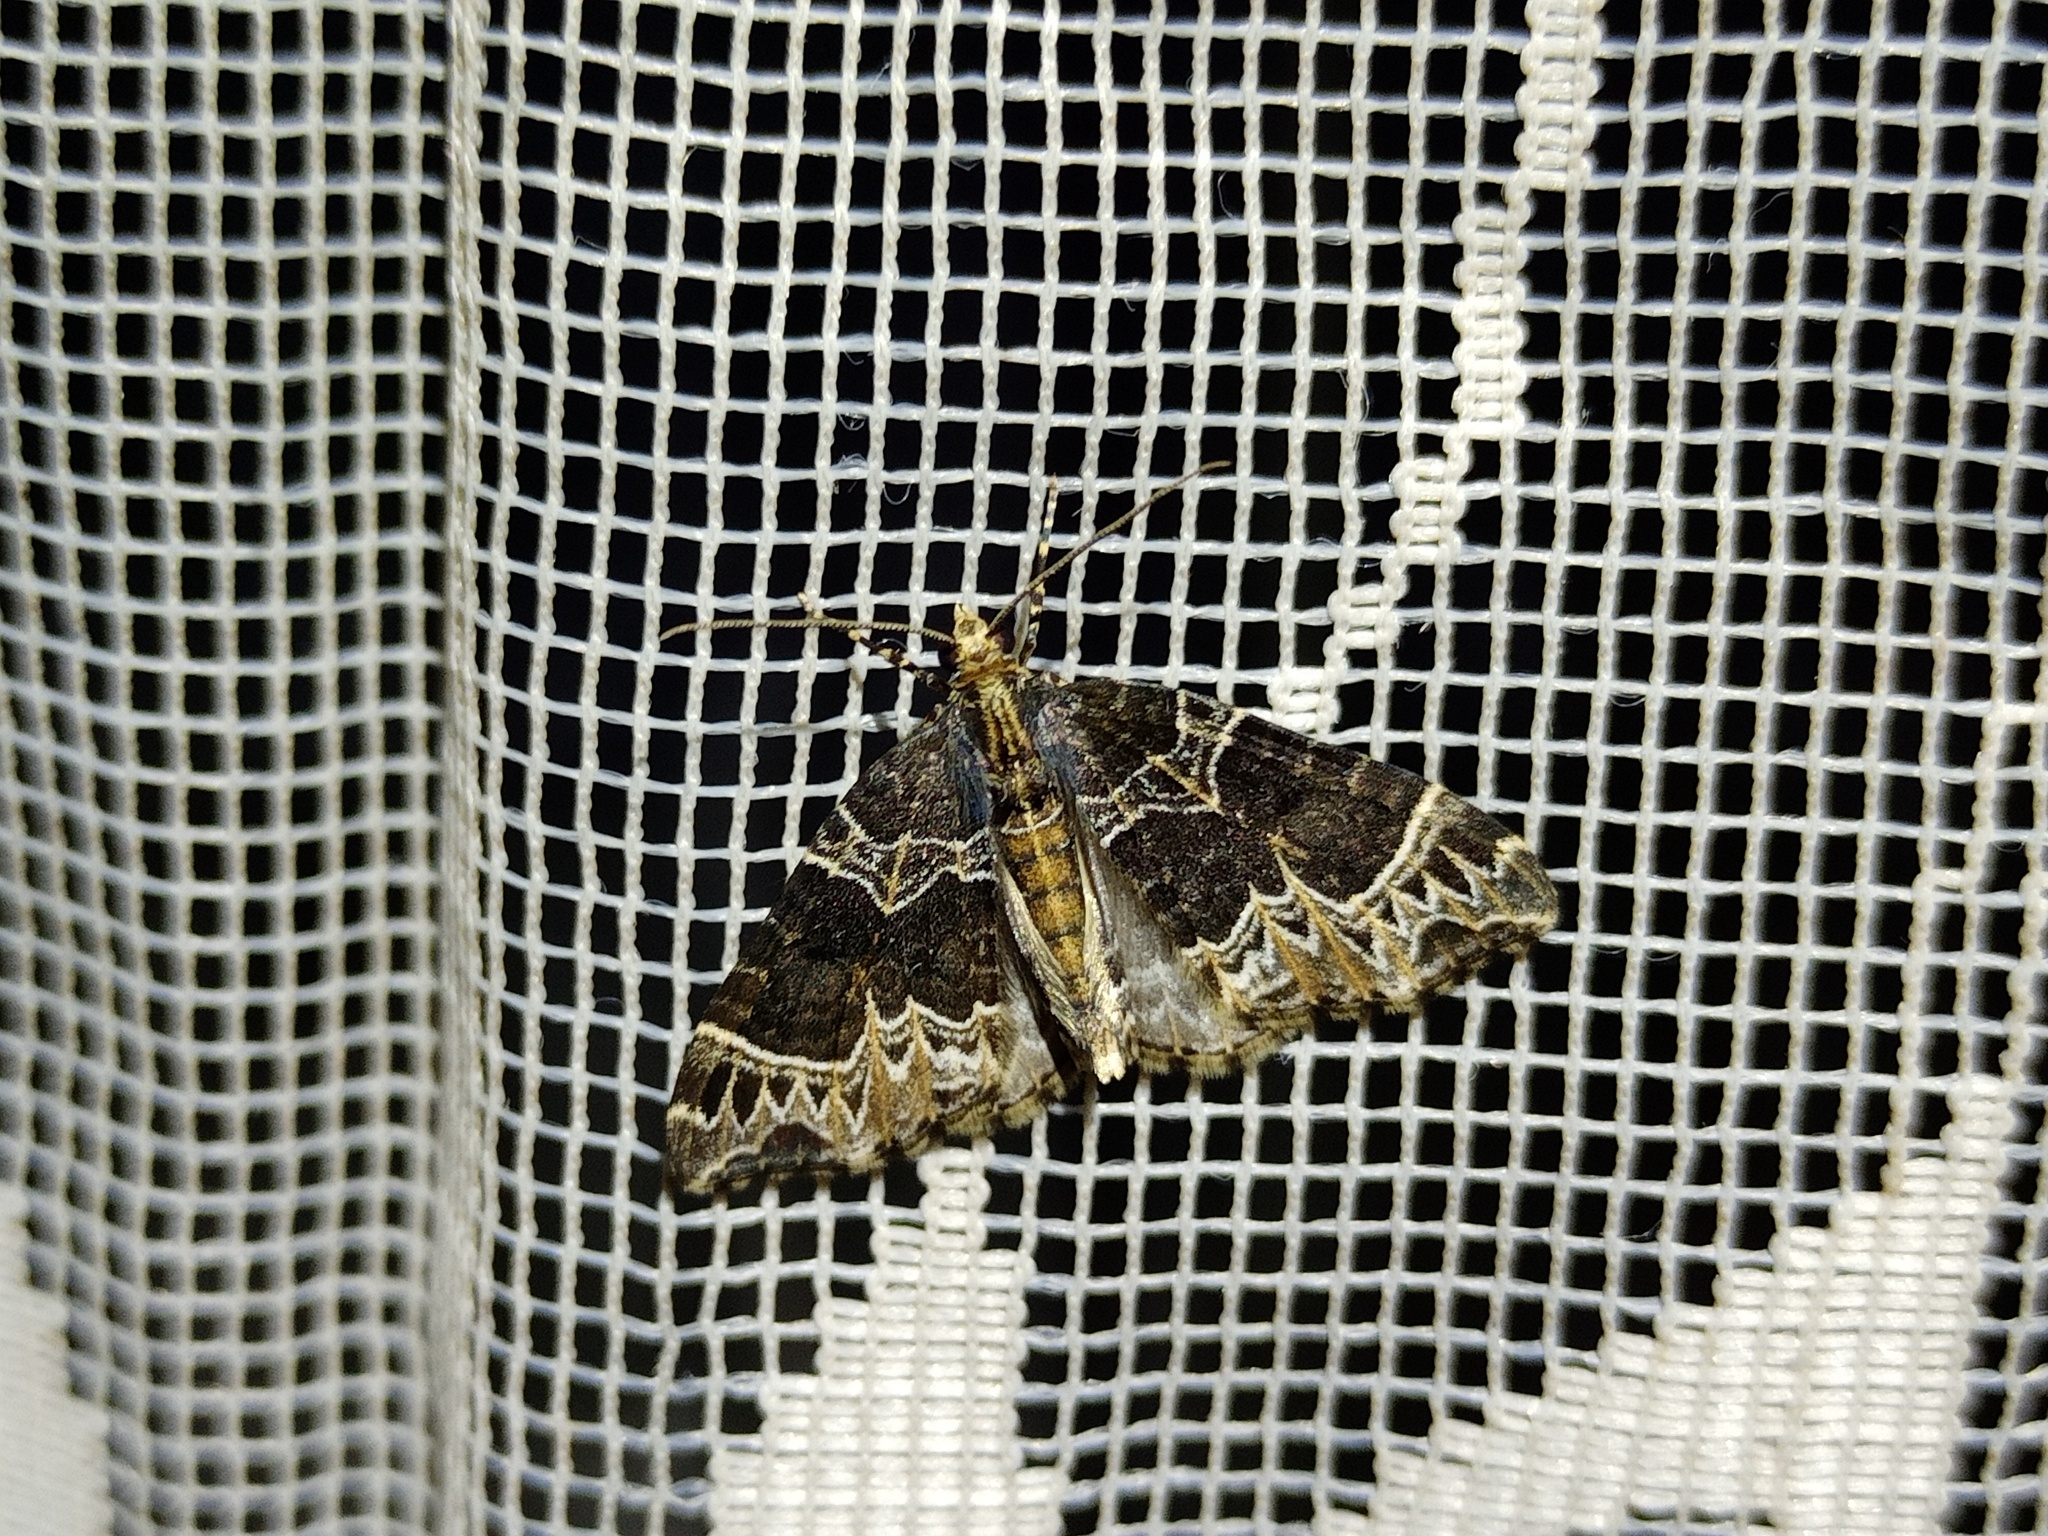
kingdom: Animalia
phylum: Arthropoda
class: Insecta
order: Lepidoptera
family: Geometridae
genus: Ecliptopera
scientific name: Ecliptopera silaceata
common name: Small phoenix
